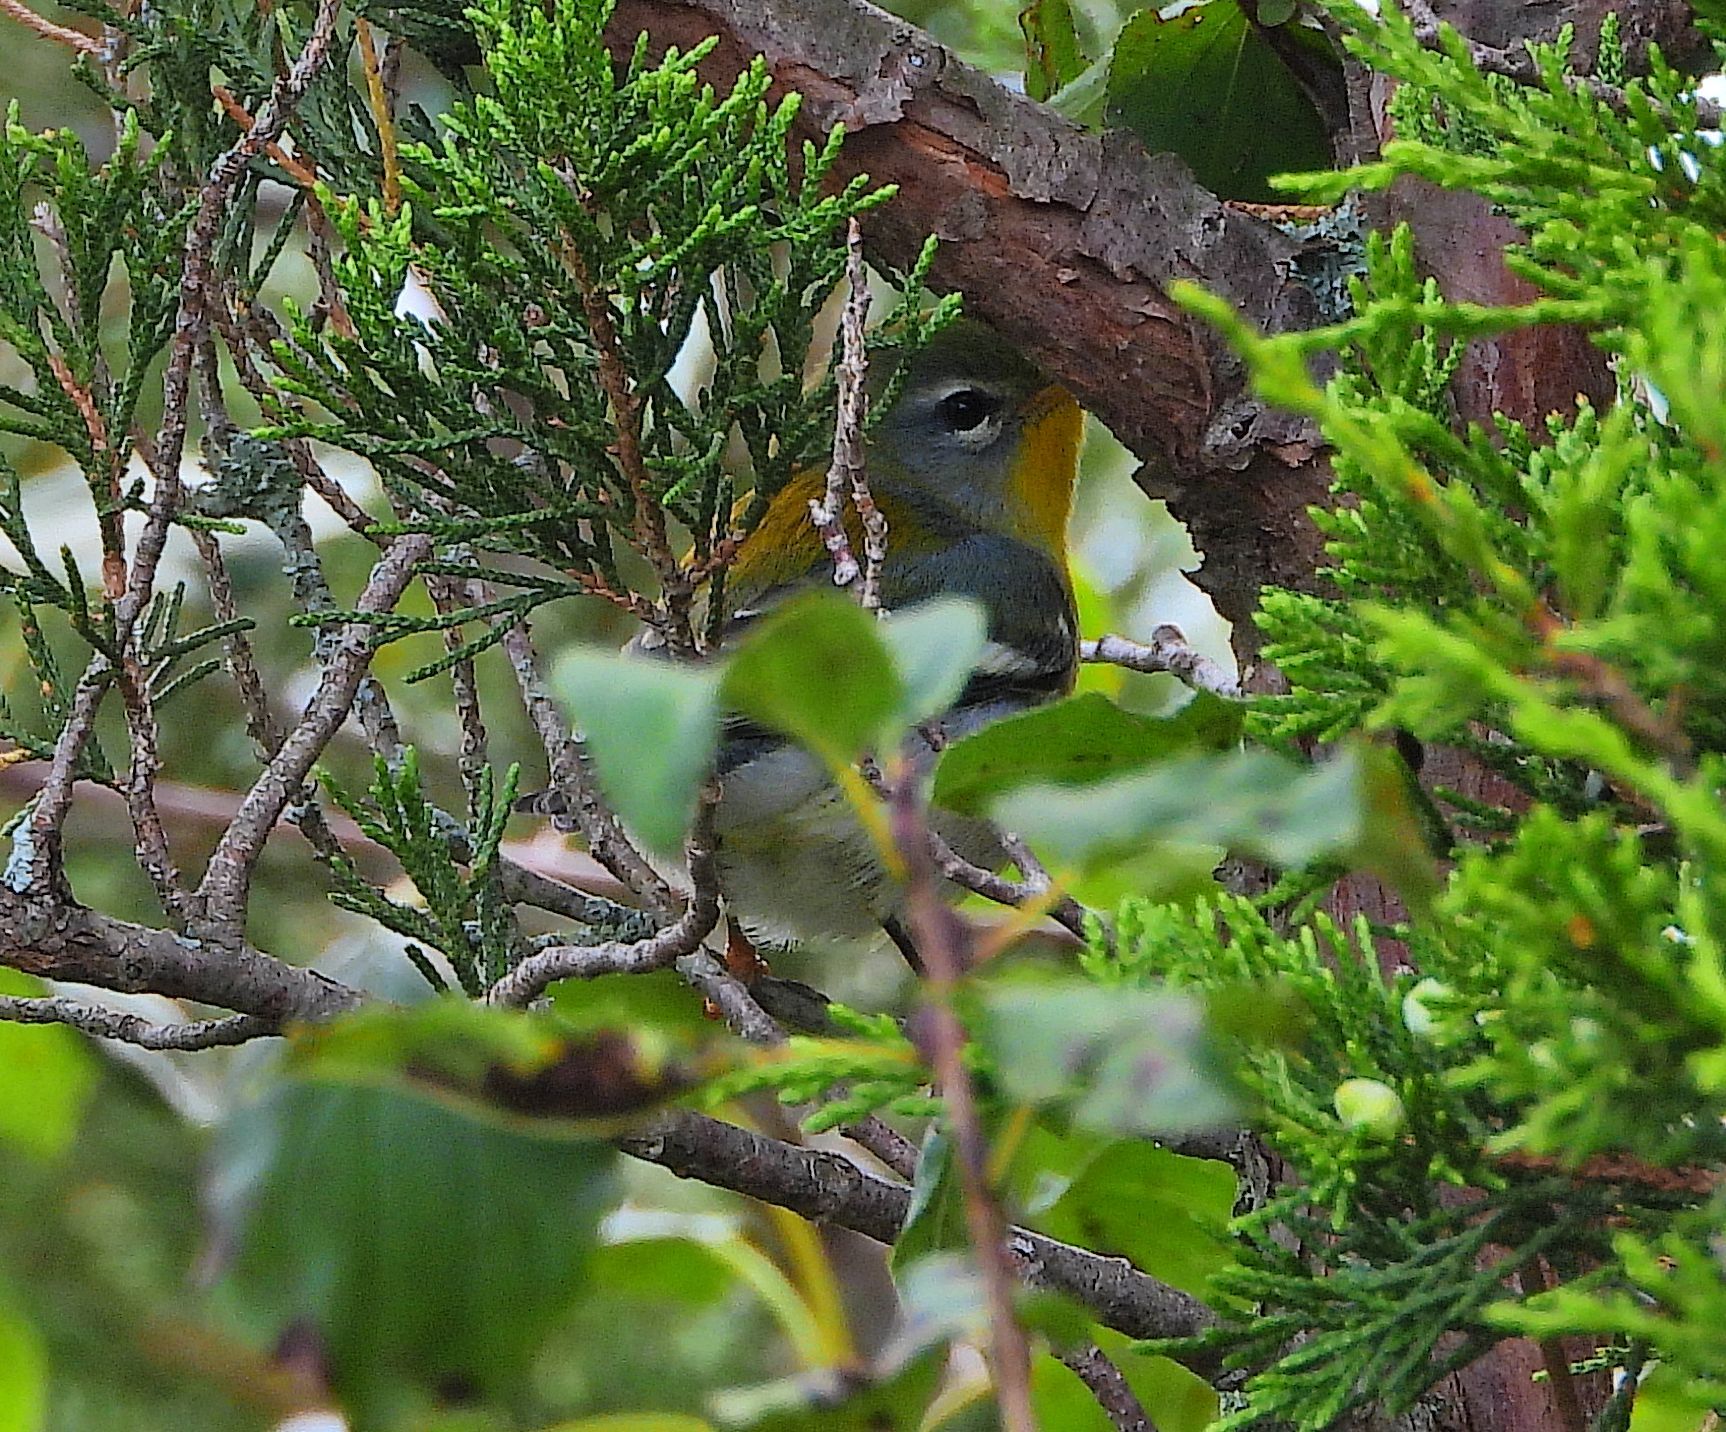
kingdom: Animalia
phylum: Chordata
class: Aves
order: Passeriformes
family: Parulidae
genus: Setophaga
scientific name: Setophaga americana
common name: Northern parula
